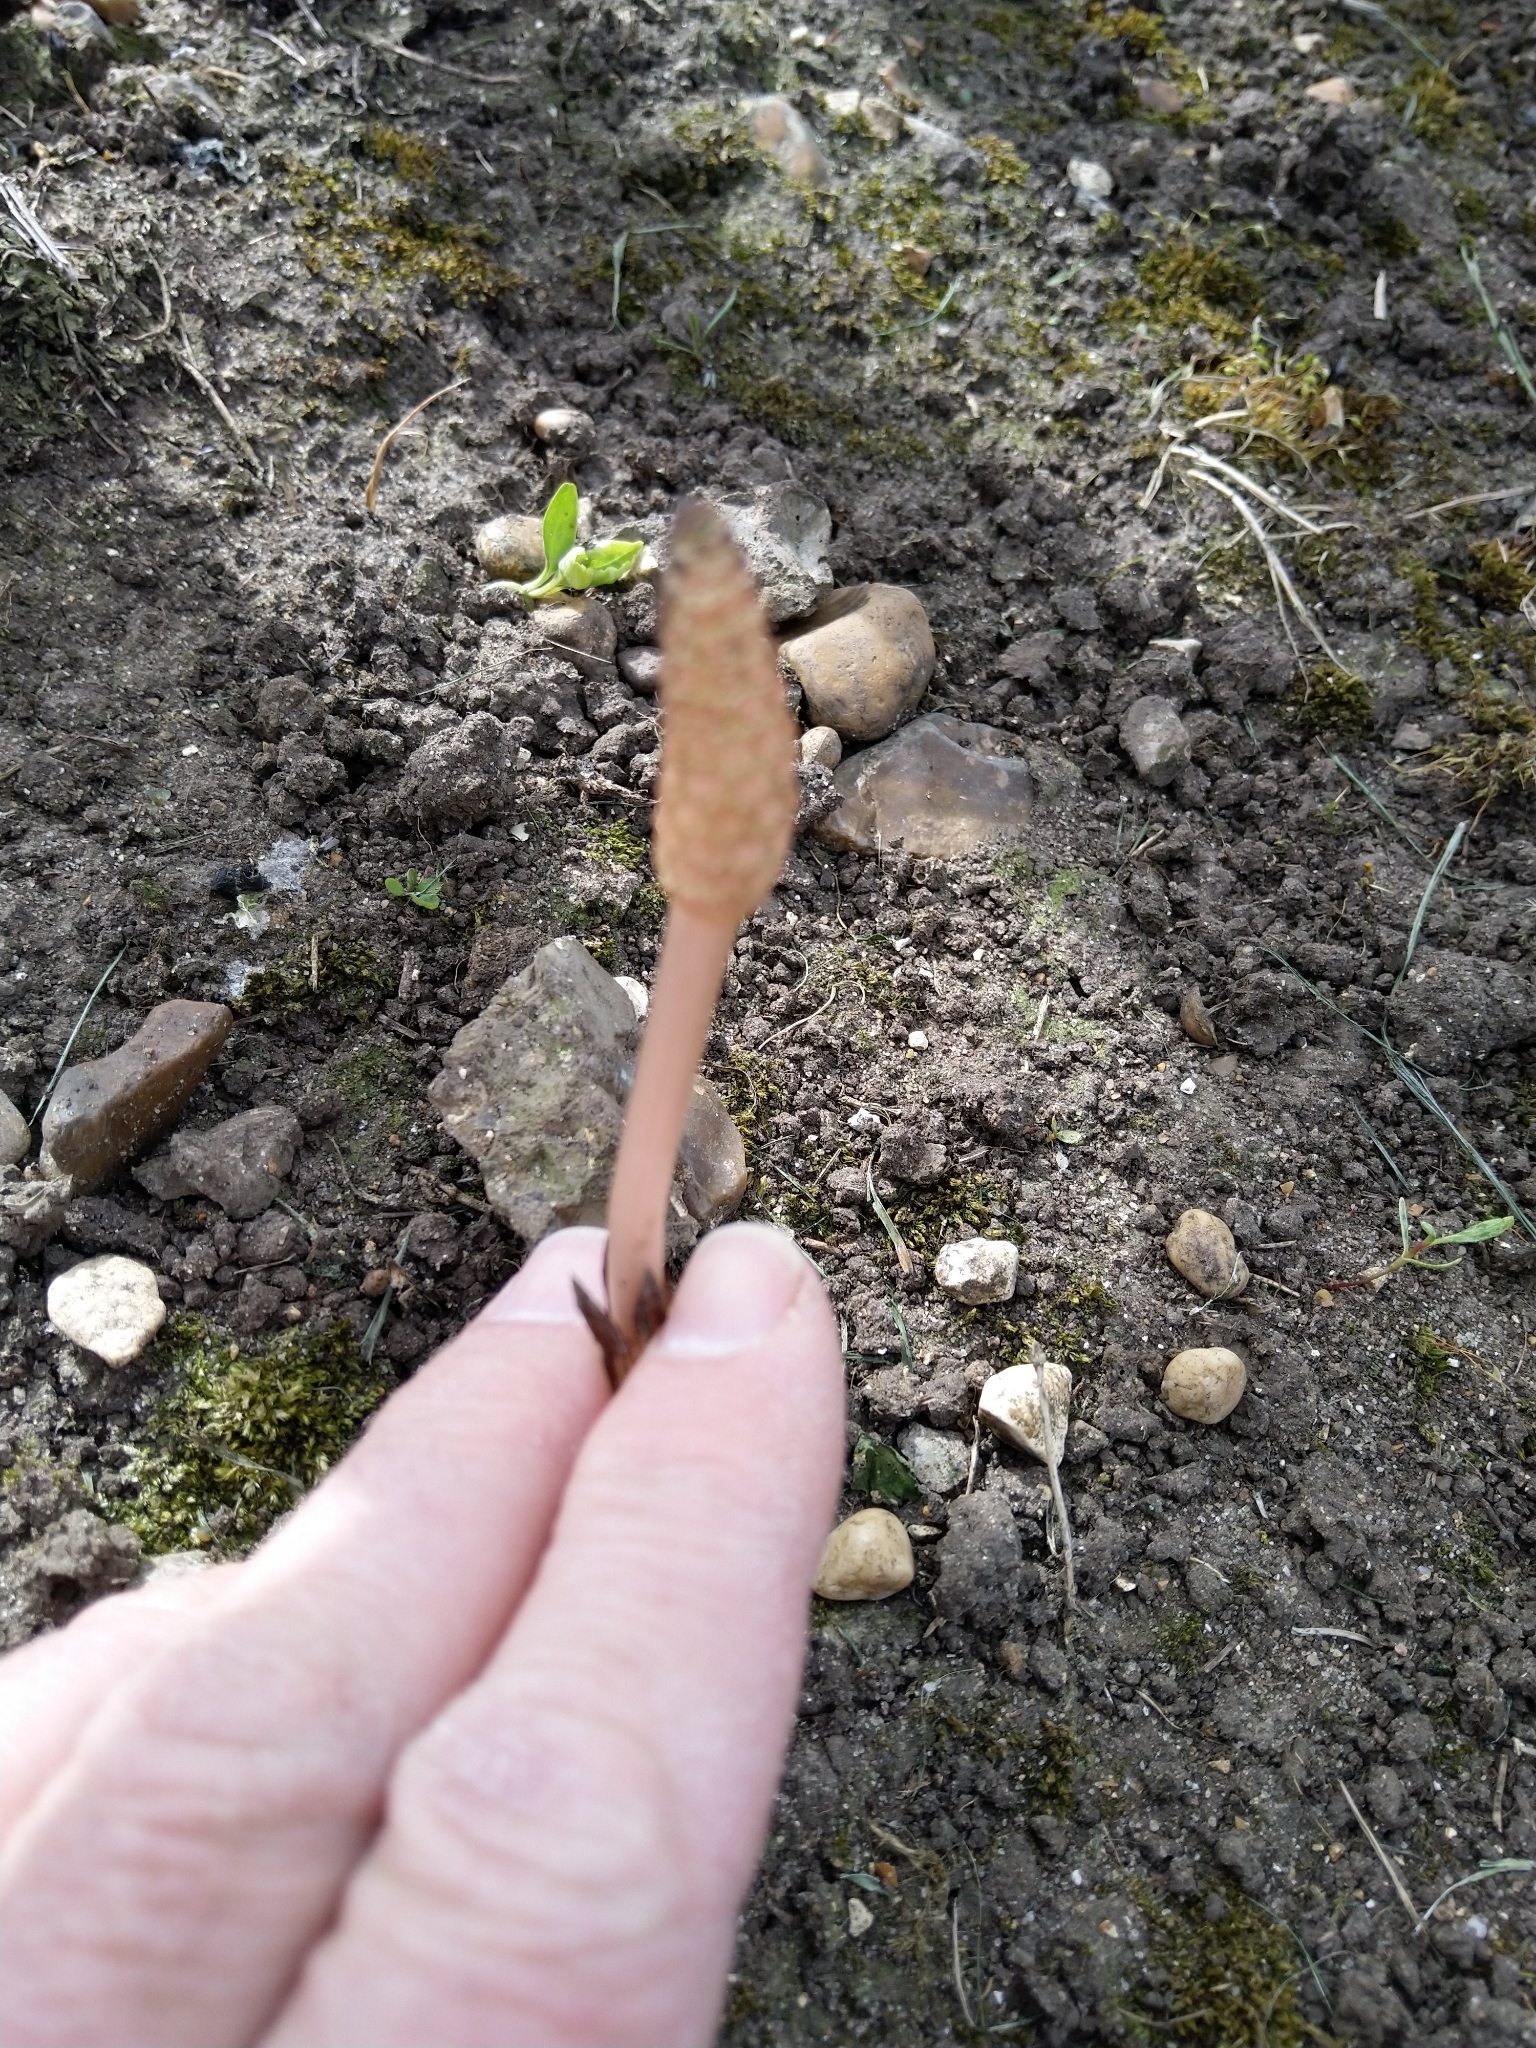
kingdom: Plantae
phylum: Tracheophyta
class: Polypodiopsida
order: Equisetales
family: Equisetaceae
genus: Equisetum
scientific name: Equisetum arvense
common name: Field horsetail
